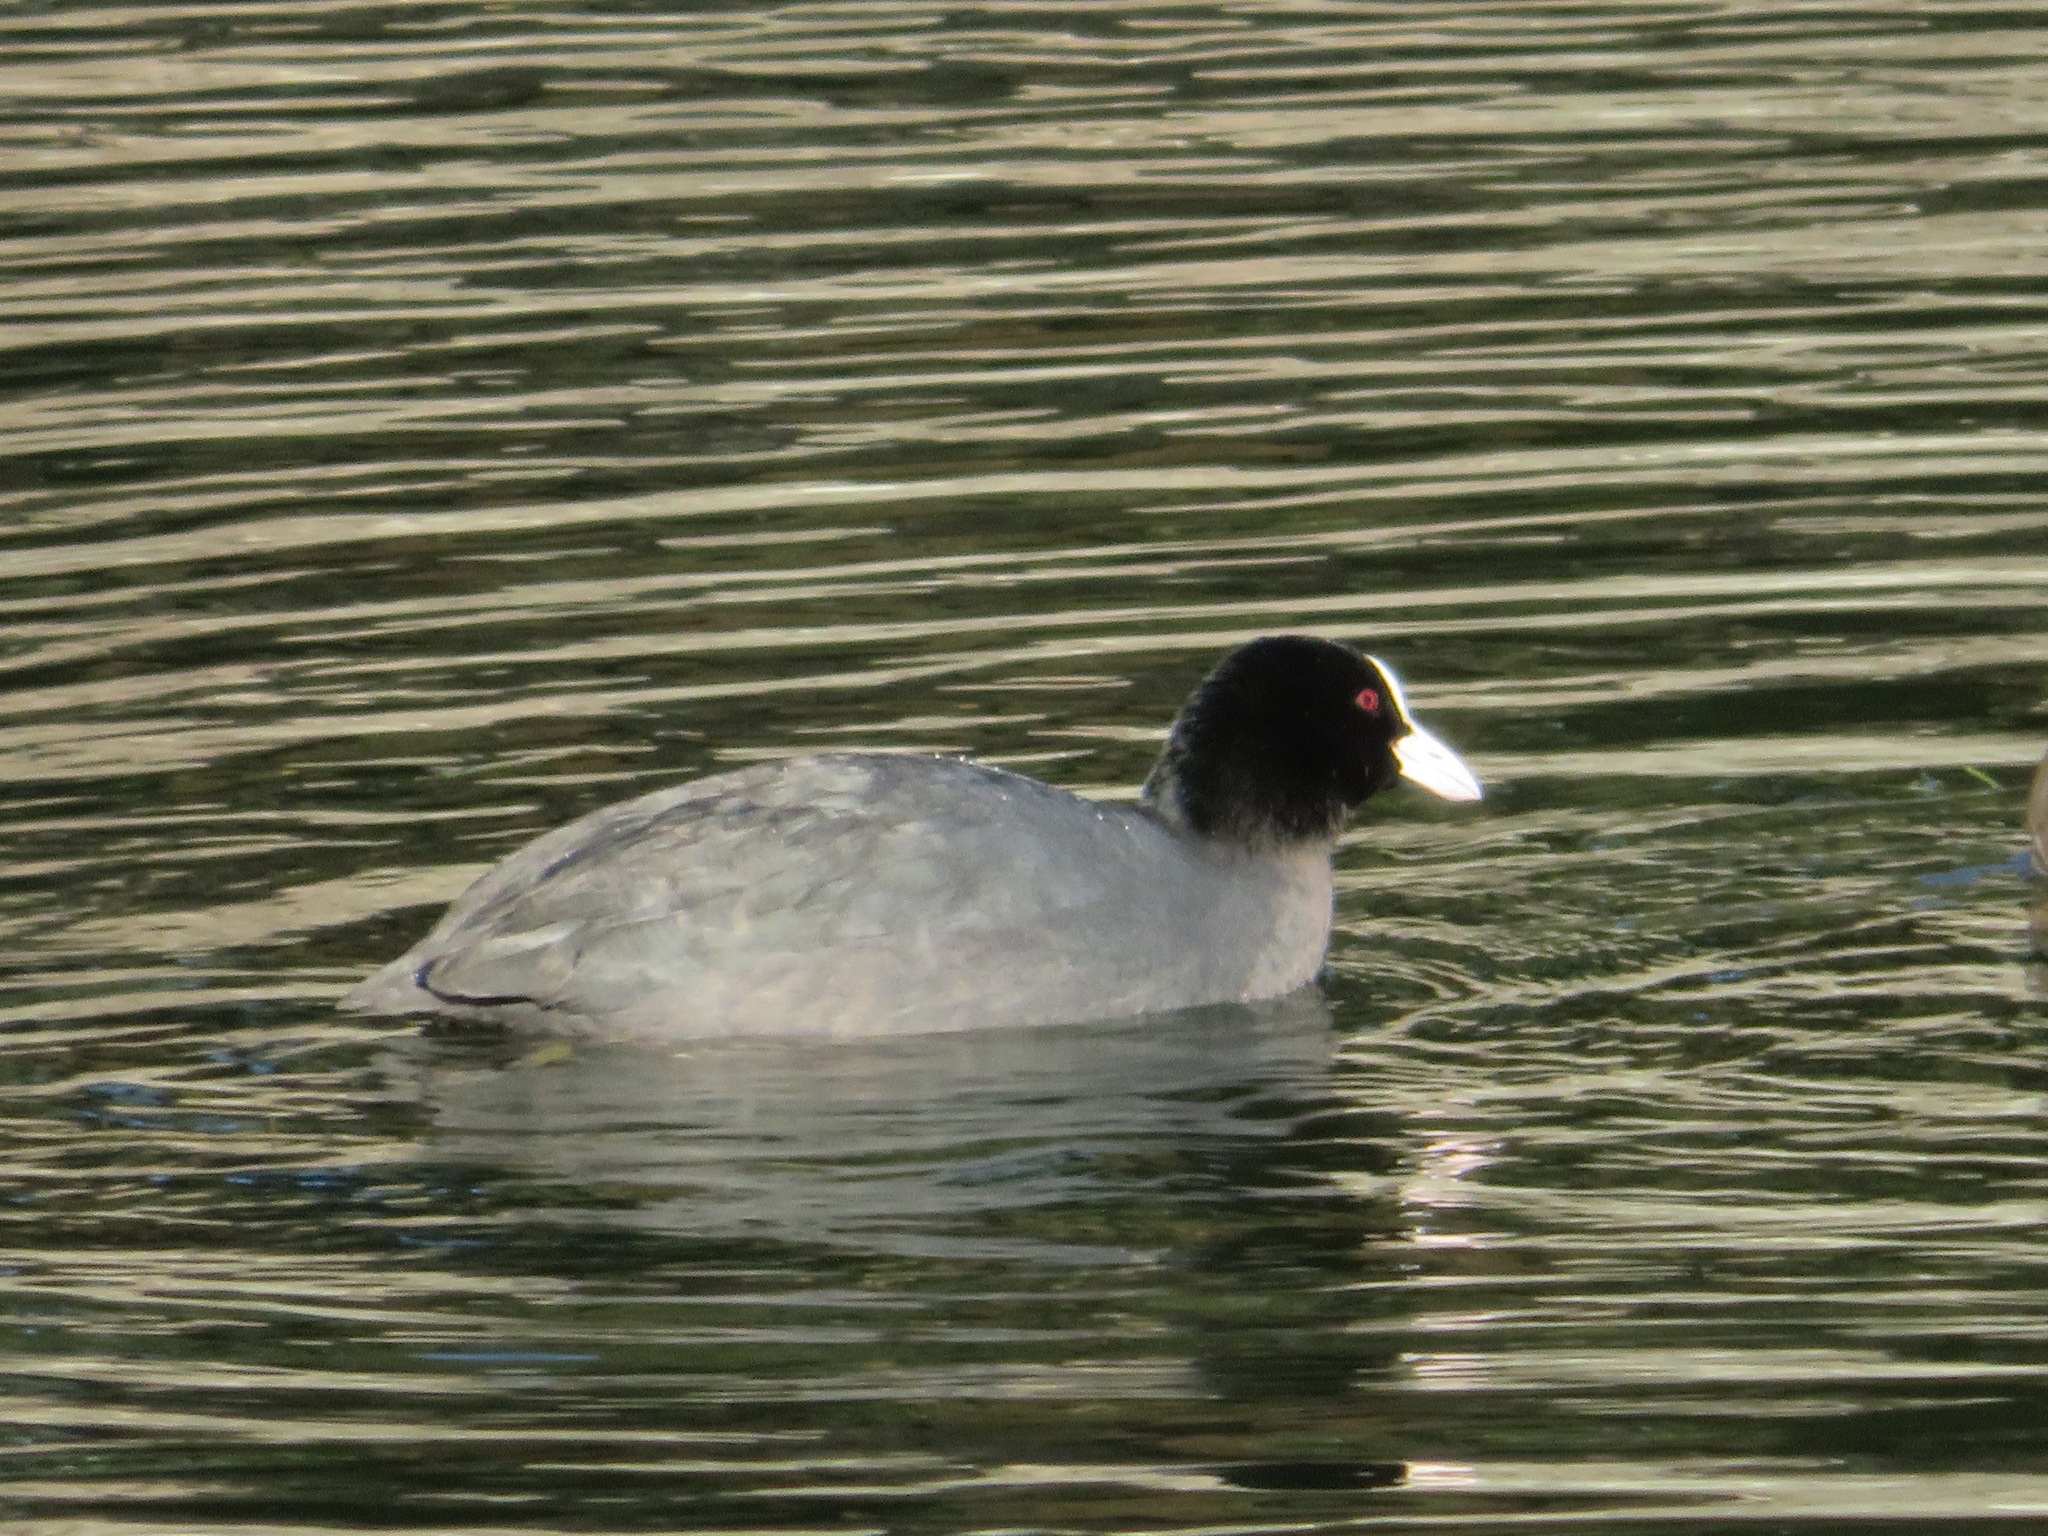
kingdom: Animalia
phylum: Chordata
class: Aves
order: Gruiformes
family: Rallidae
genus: Fulica
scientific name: Fulica atra
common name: Eurasian coot
